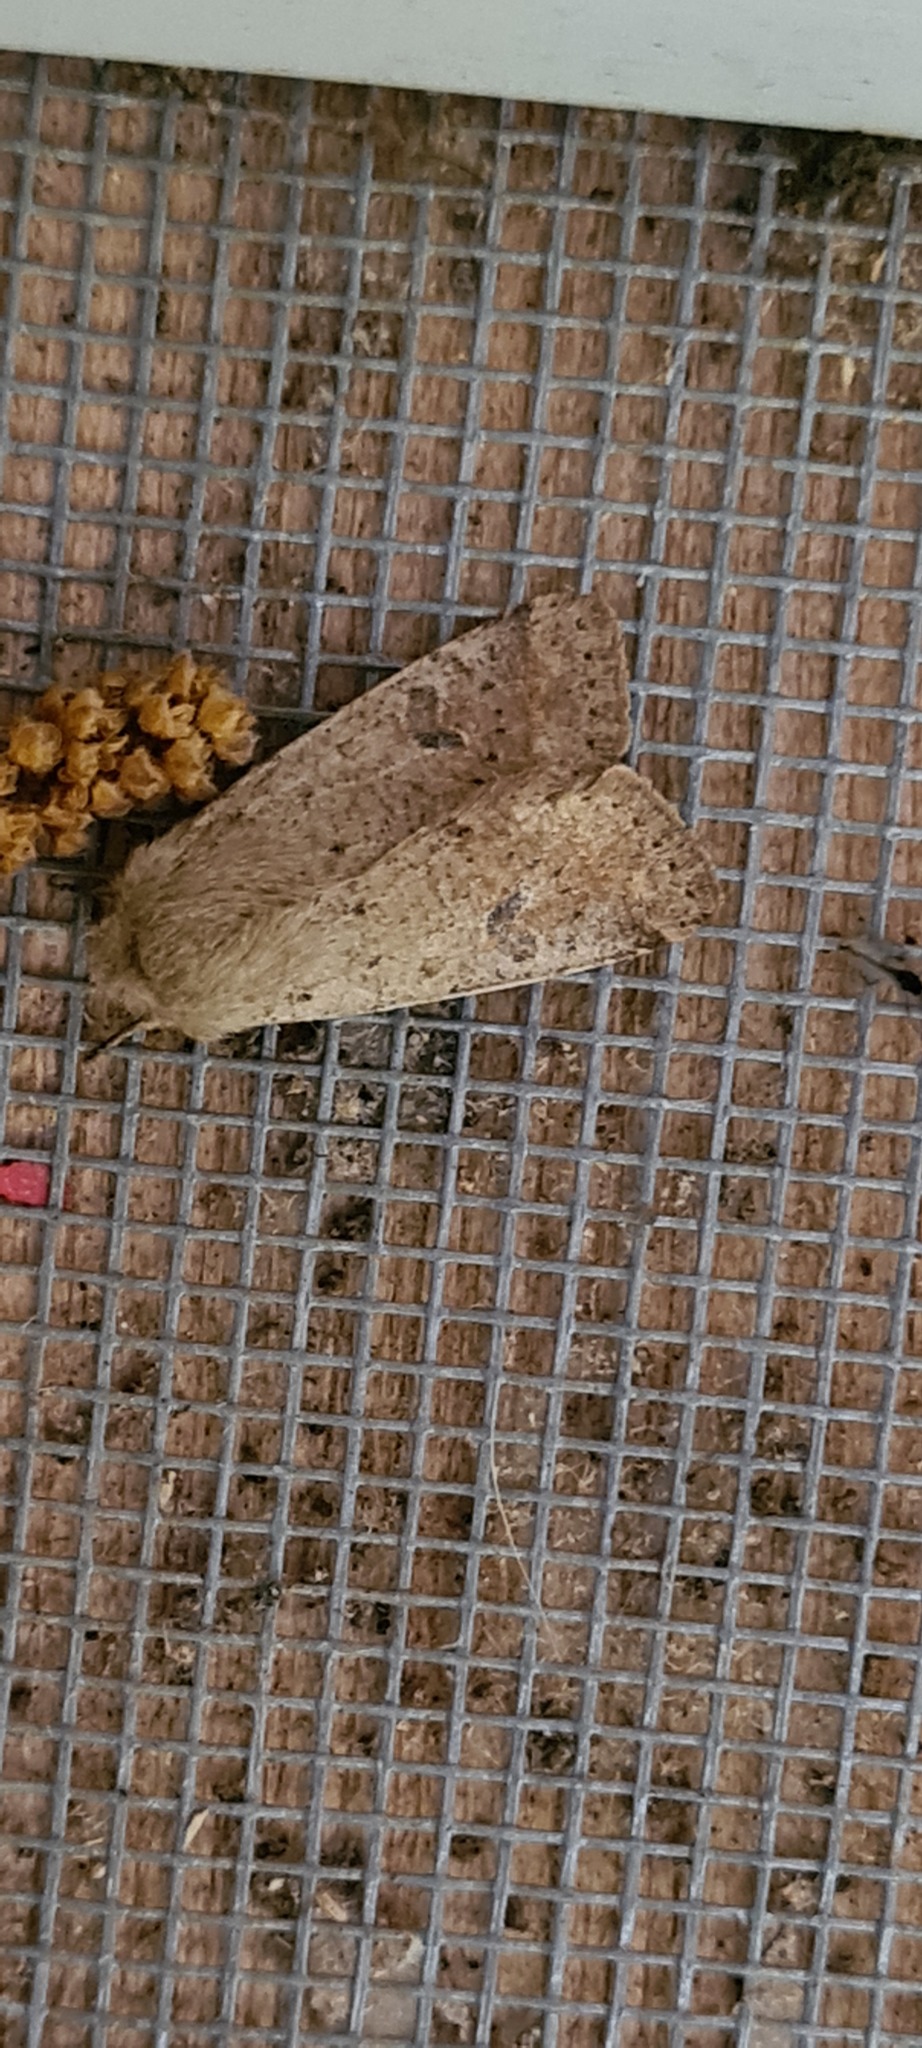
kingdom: Animalia
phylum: Arthropoda
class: Insecta
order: Lepidoptera
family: Noctuidae
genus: Orthosia
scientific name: Orthosia cruda
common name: Small quaker
